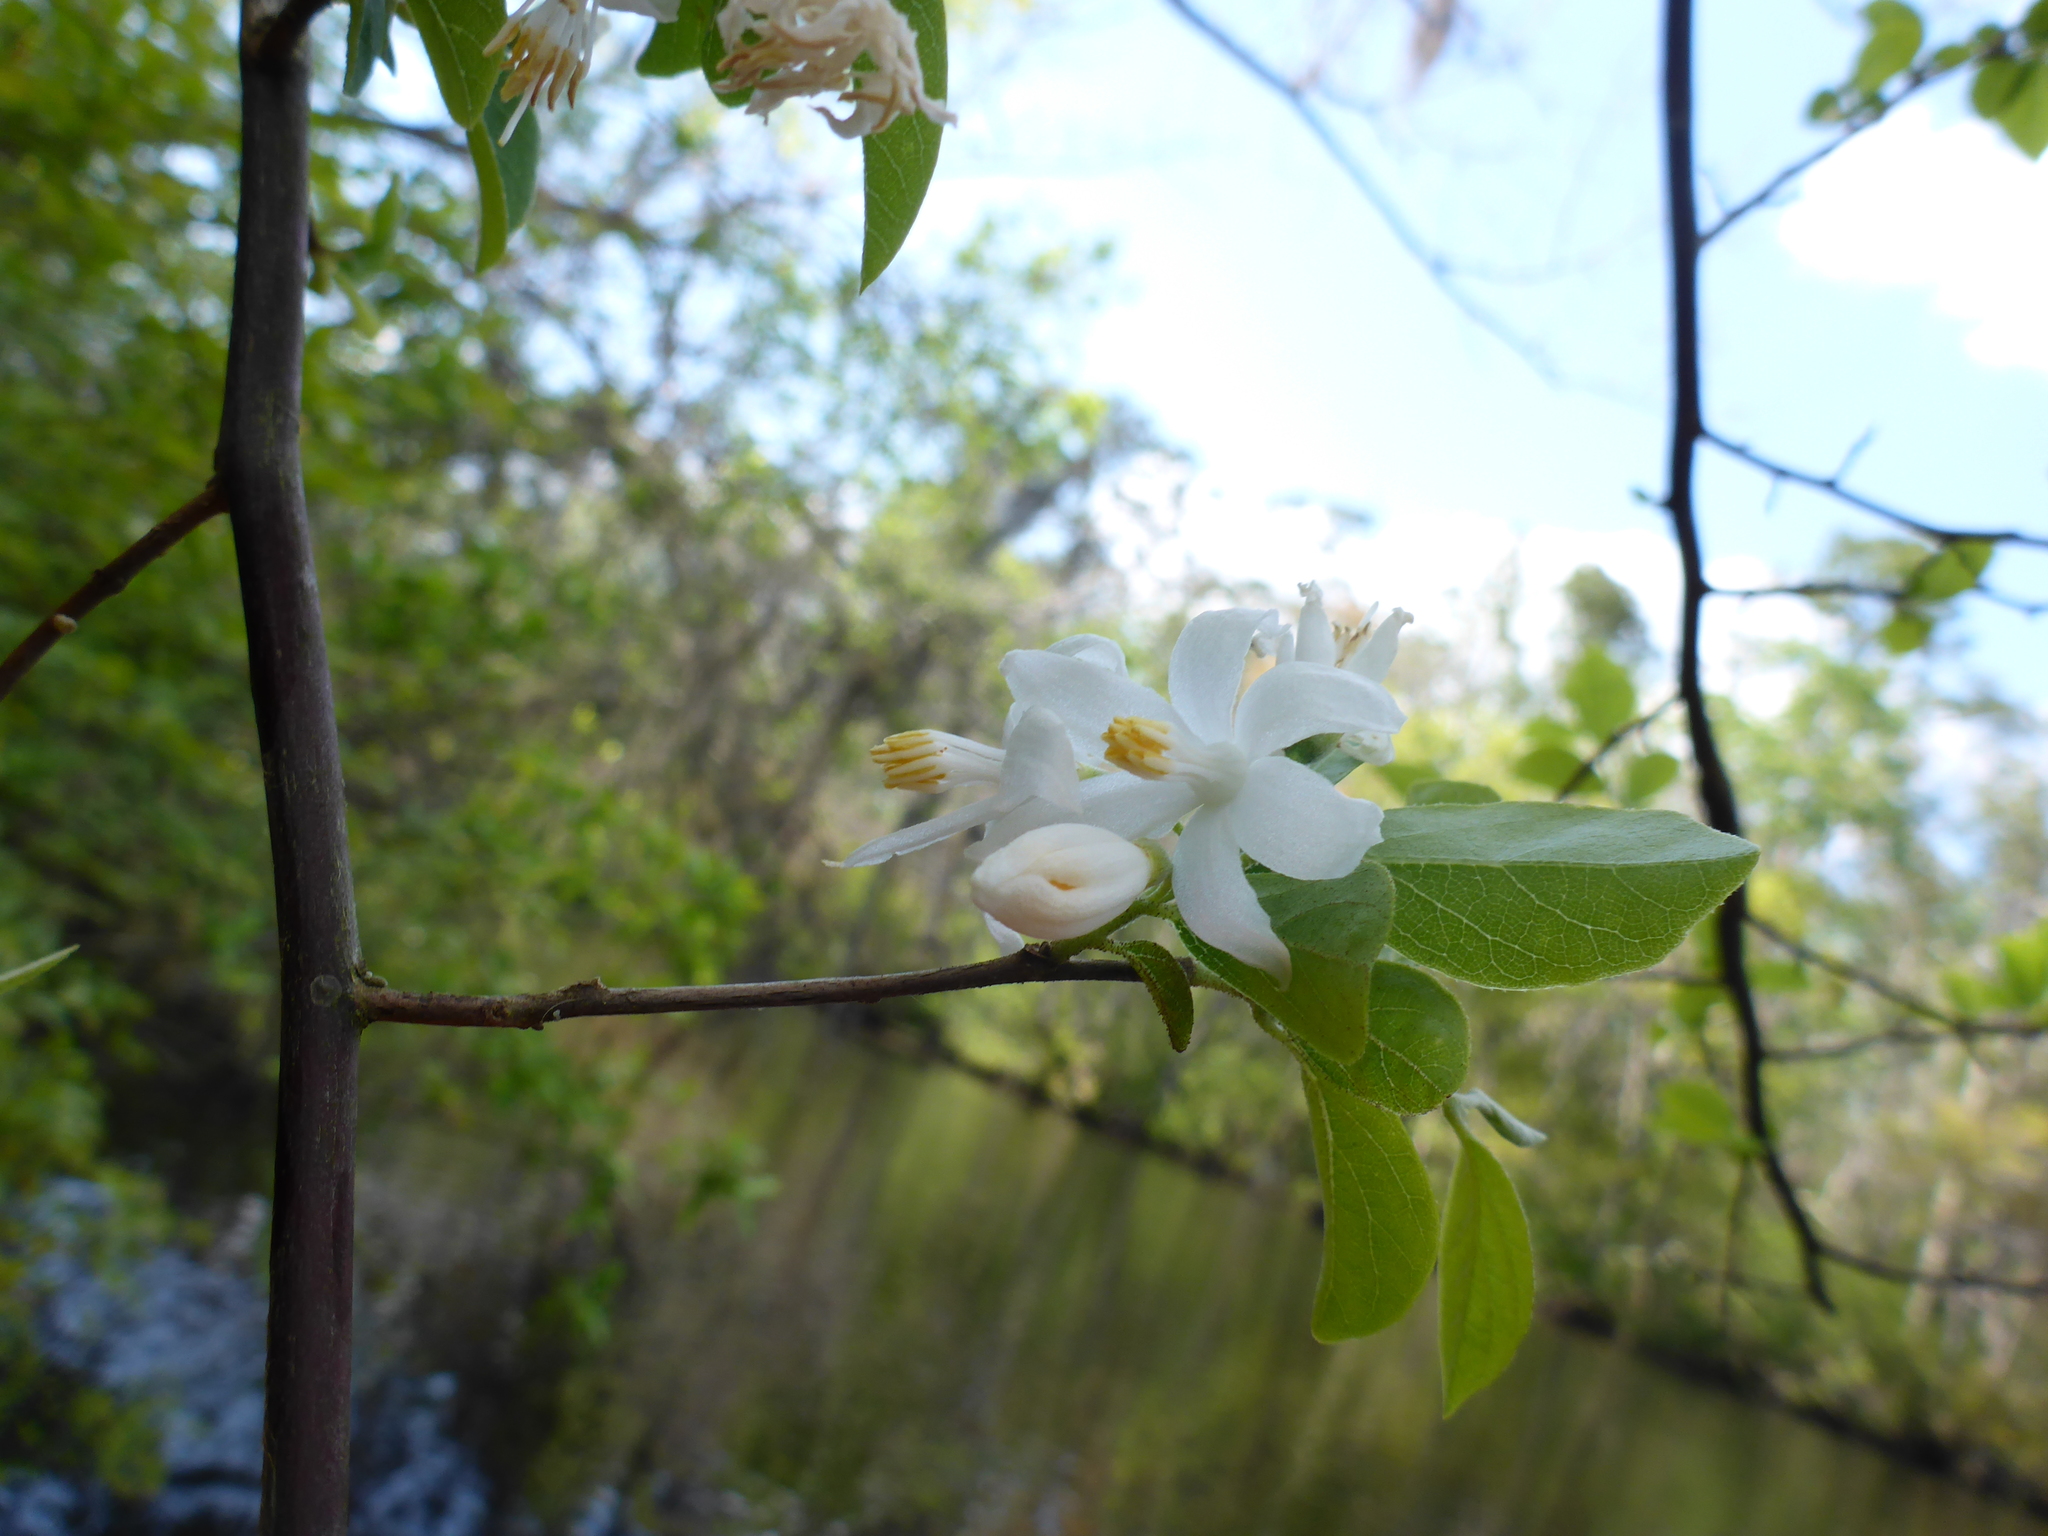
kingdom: Plantae
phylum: Tracheophyta
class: Magnoliopsida
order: Ericales
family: Styracaceae
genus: Styrax
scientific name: Styrax americanus
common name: American snowbell
